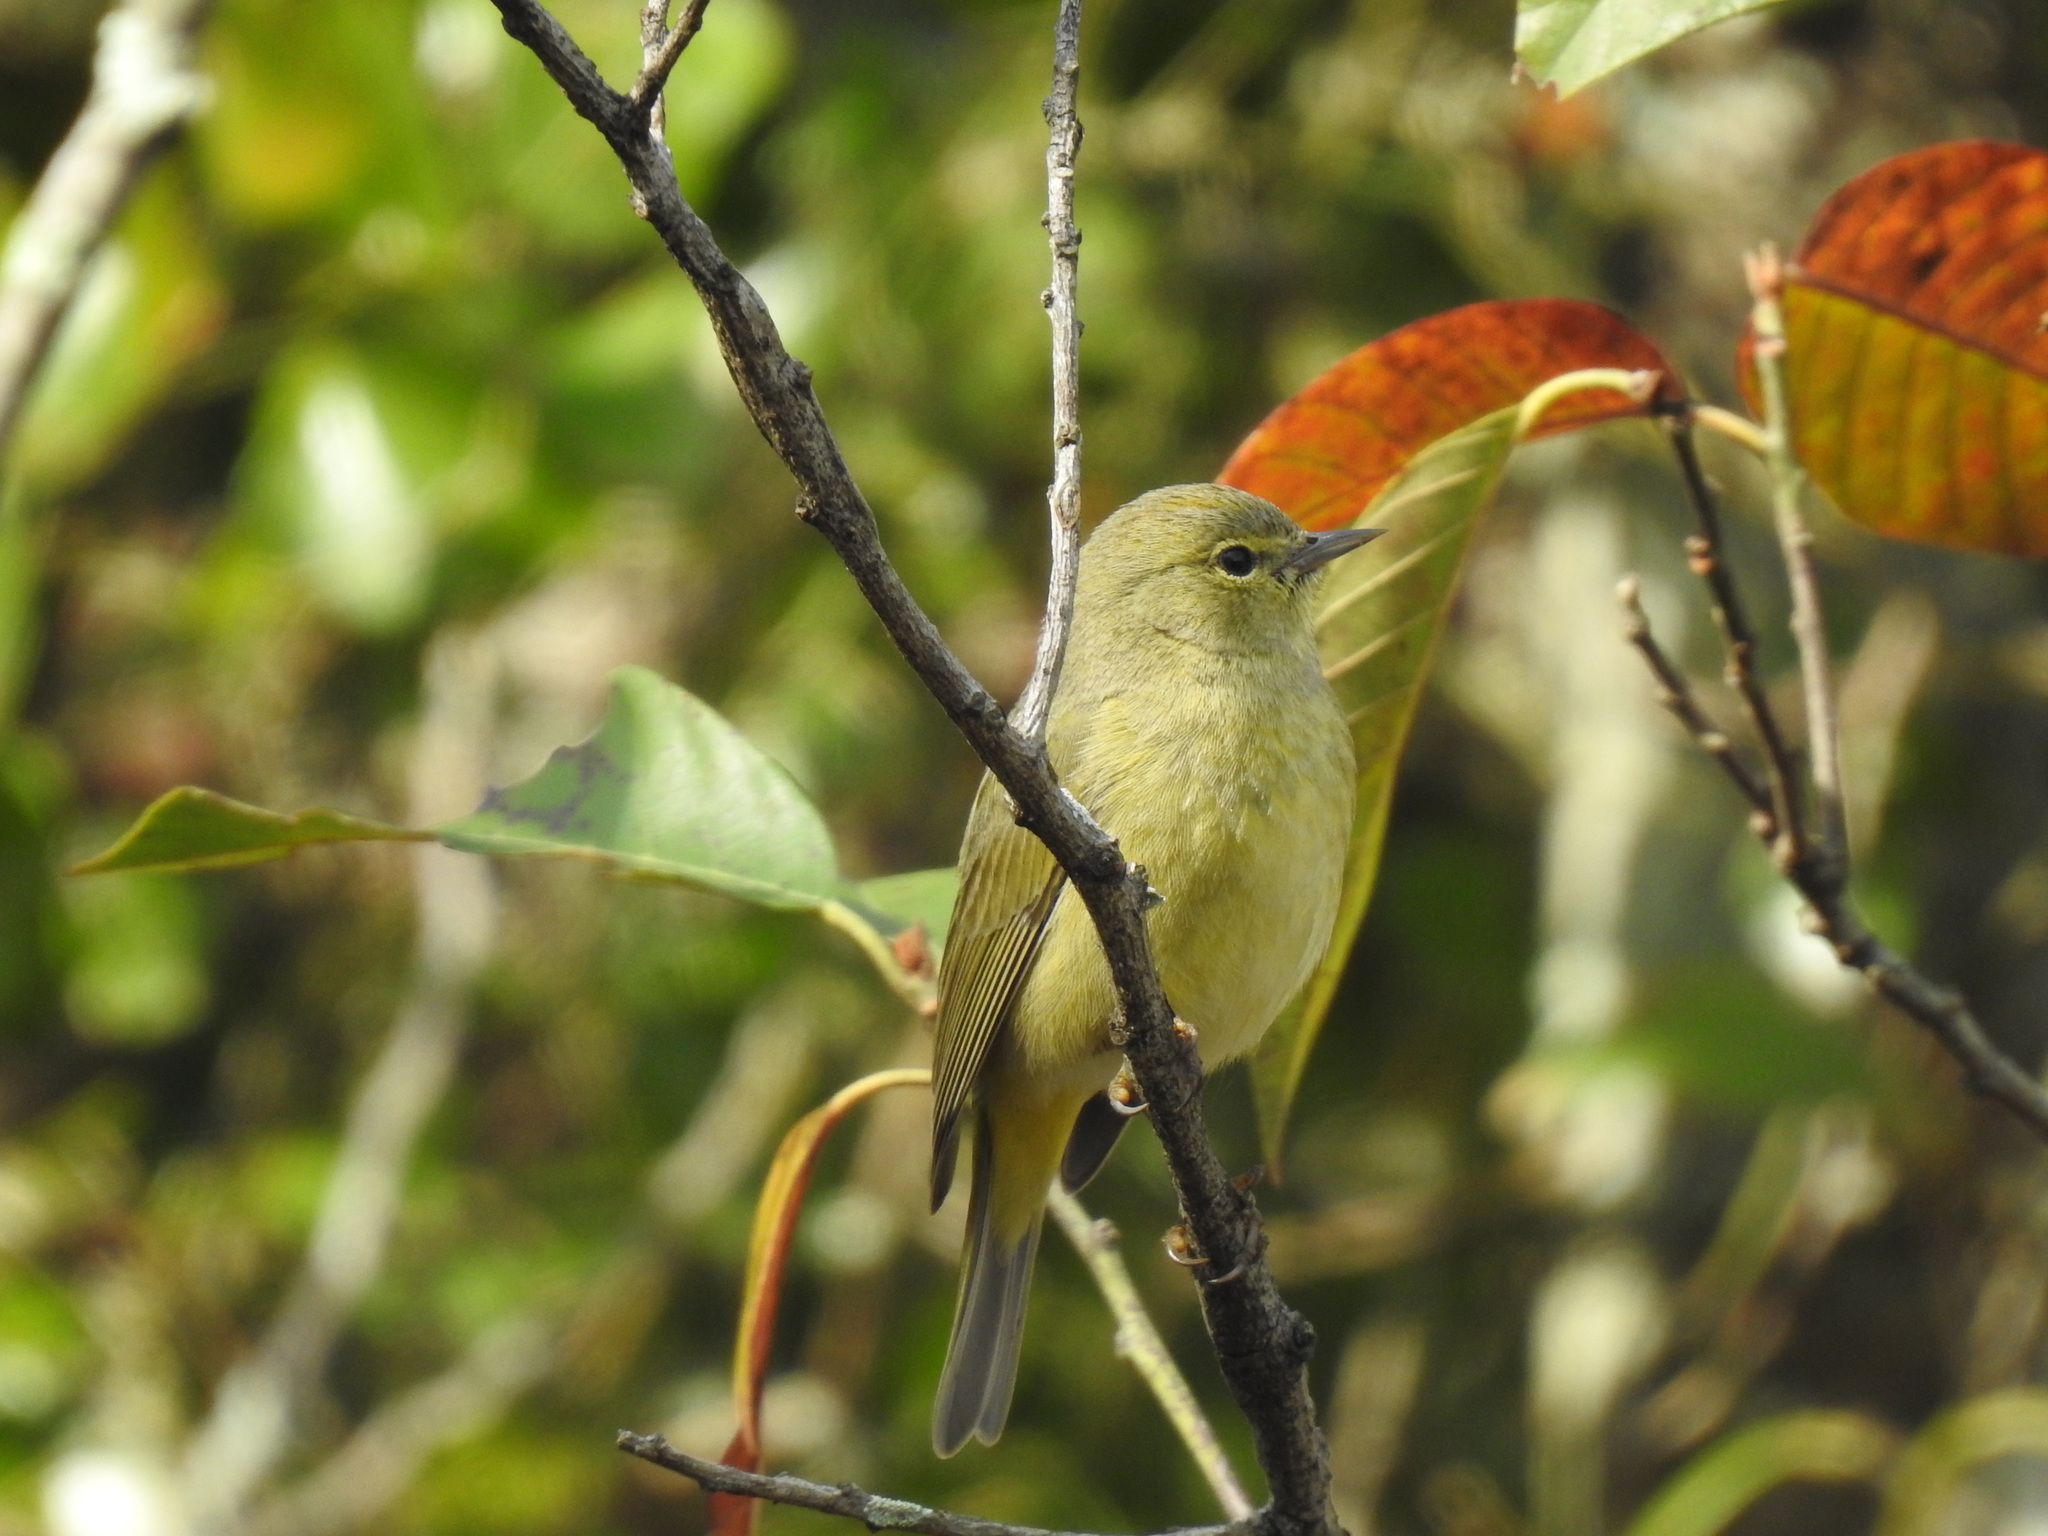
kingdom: Animalia
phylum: Chordata
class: Aves
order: Passeriformes
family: Parulidae
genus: Leiothlypis
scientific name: Leiothlypis celata
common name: Orange-crowned warbler
